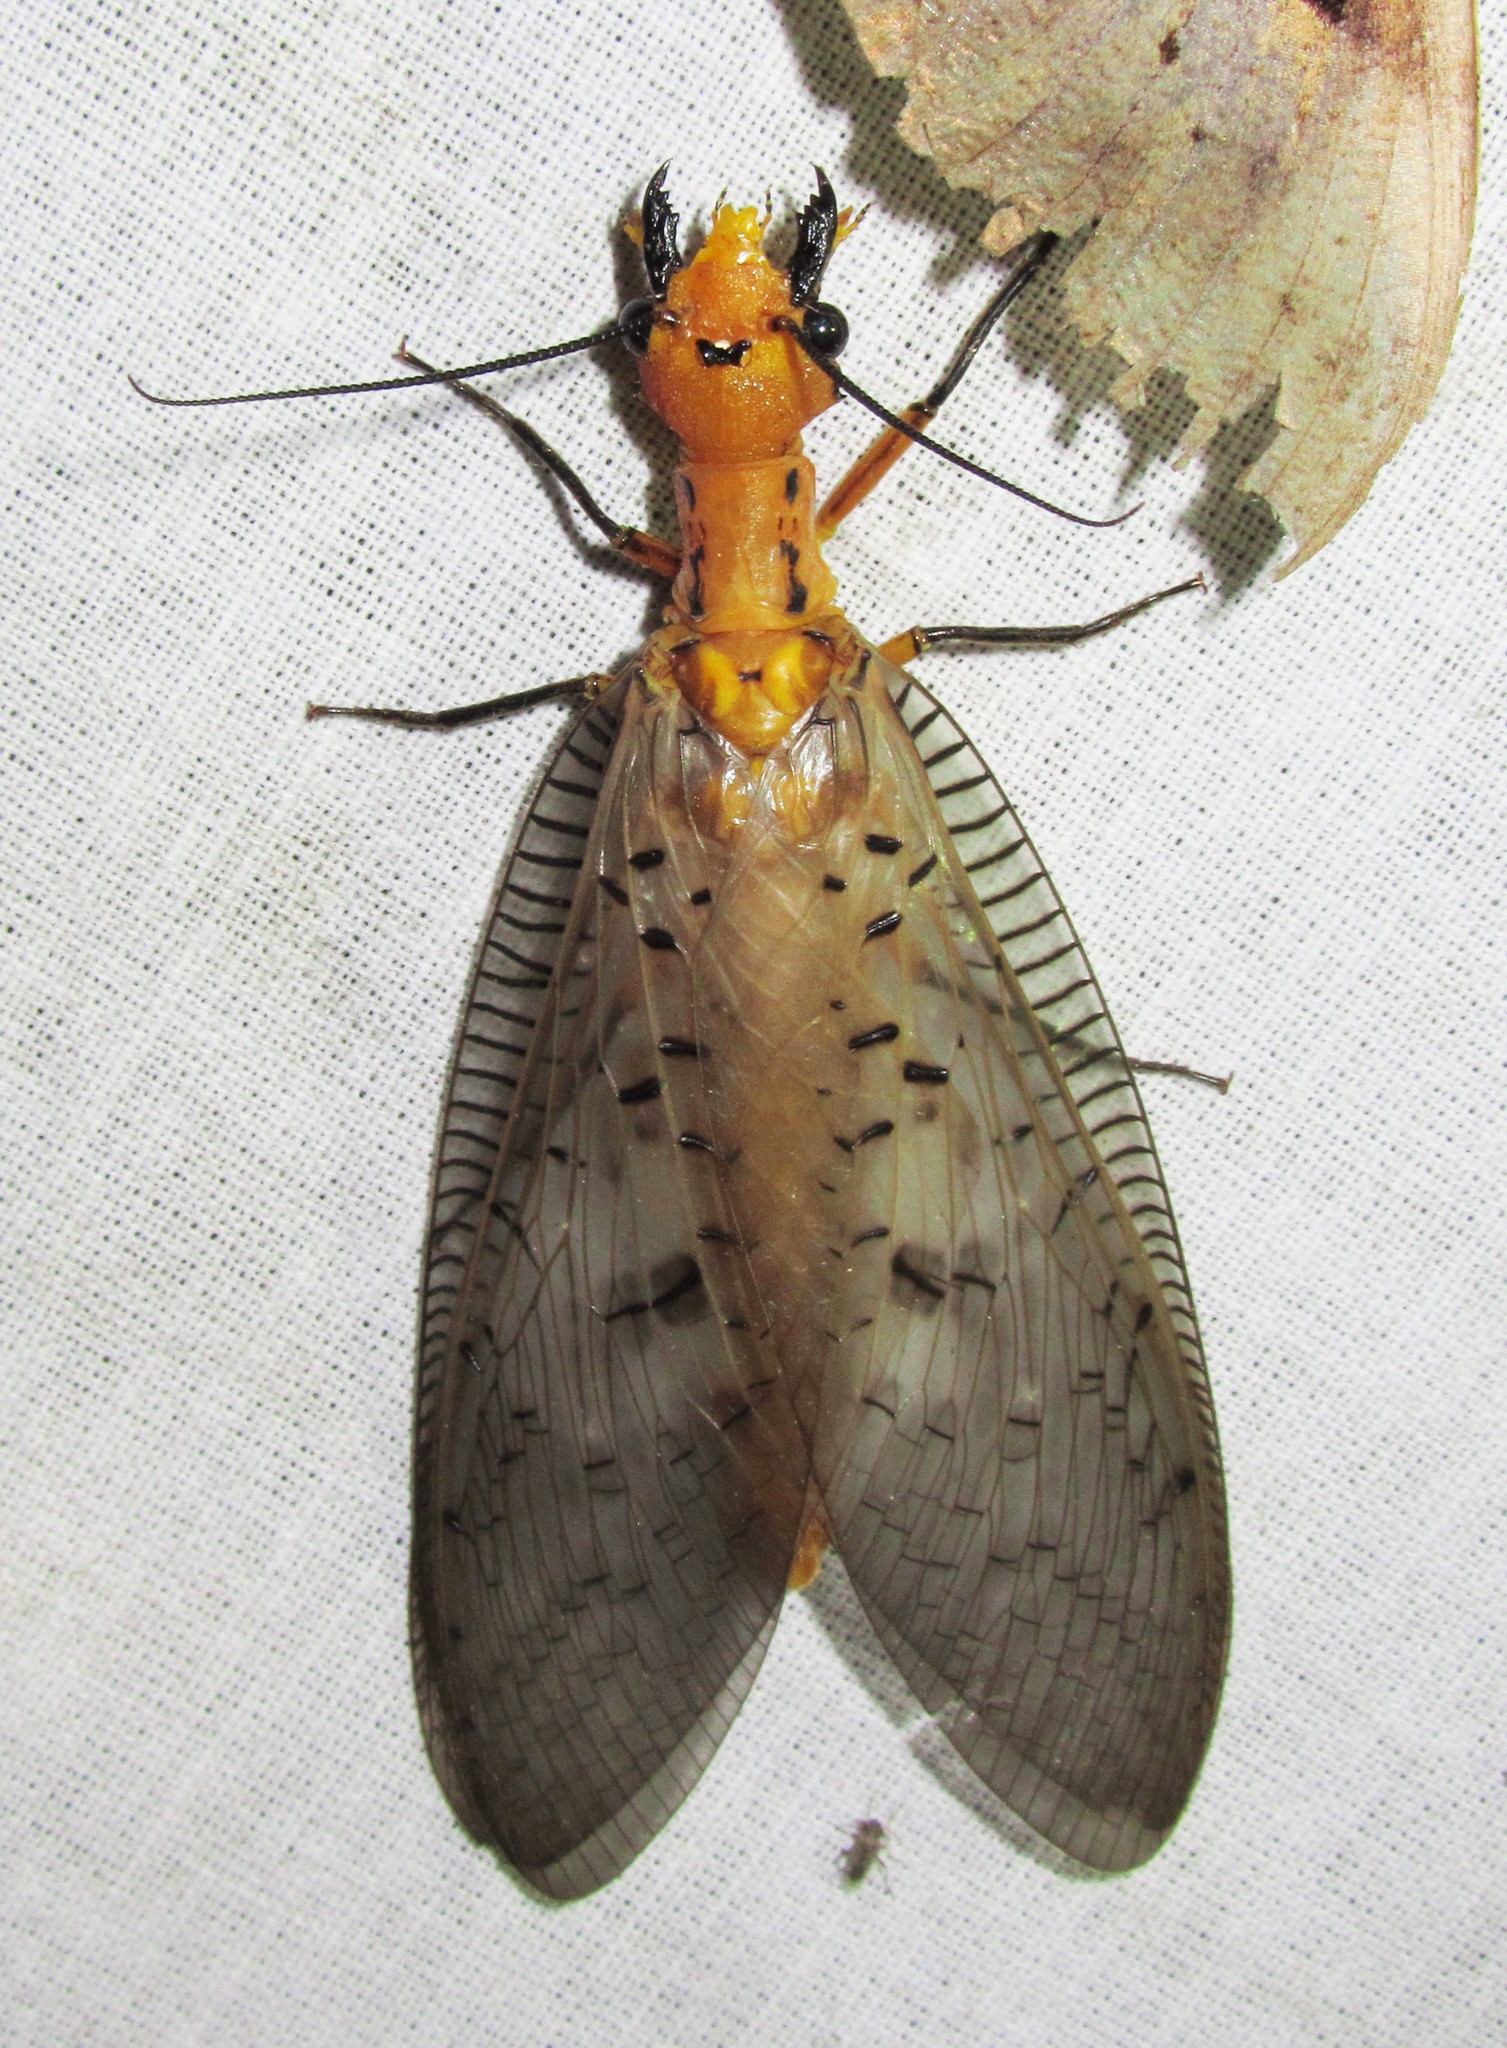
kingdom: Animalia
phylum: Arthropoda
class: Insecta
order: Megaloptera
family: Corydalidae
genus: Neoneuromus
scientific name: Neoneuromus sikkimmensis
